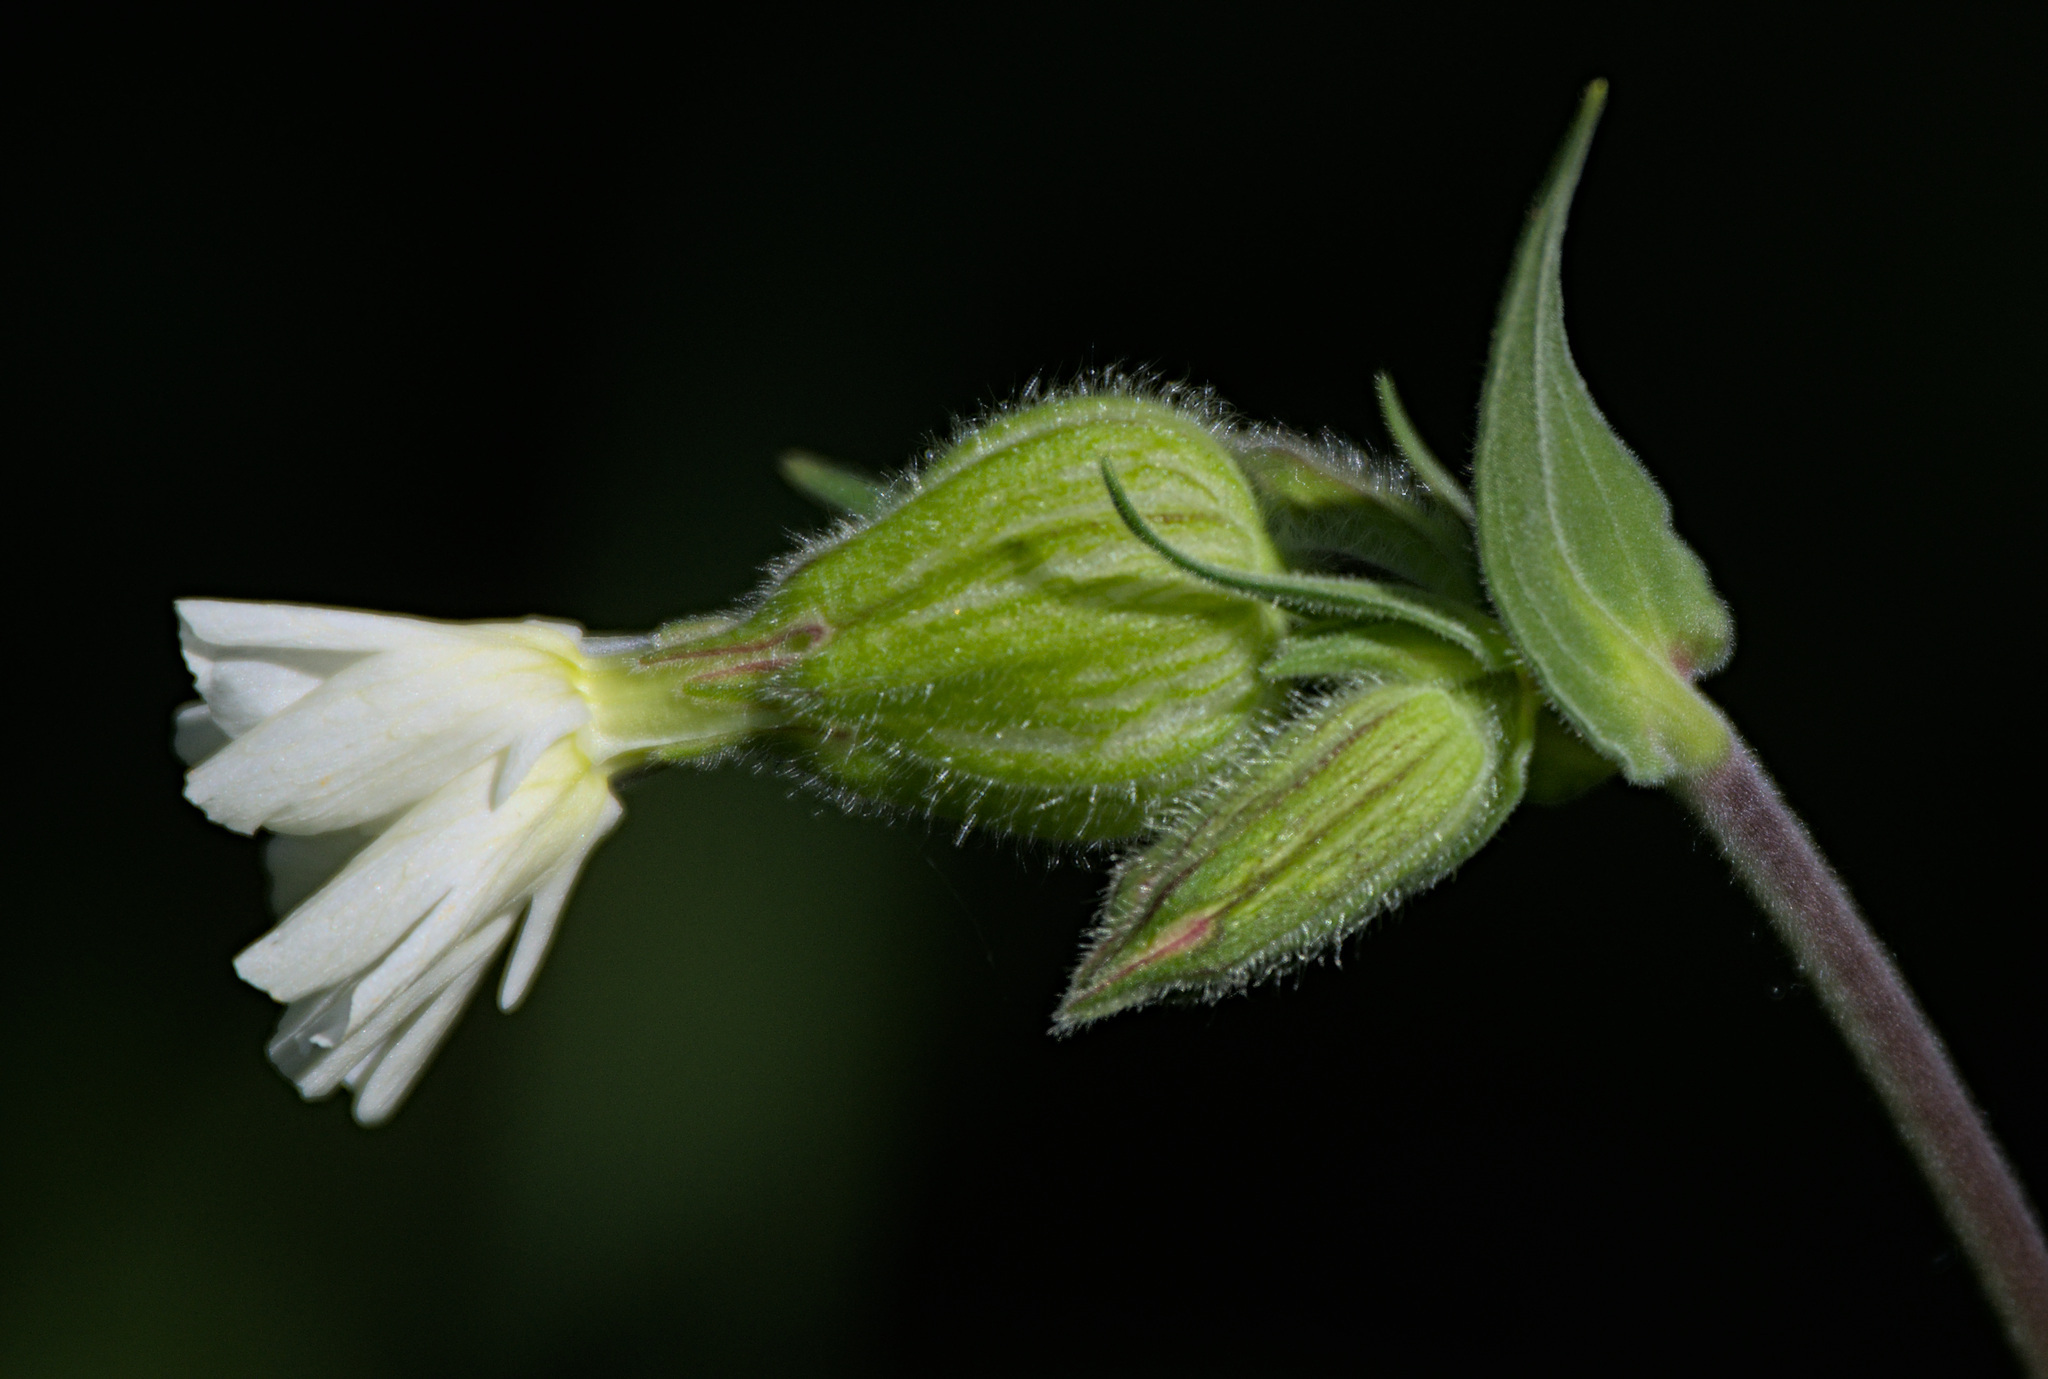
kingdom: Plantae
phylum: Tracheophyta
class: Magnoliopsida
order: Caryophyllales
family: Caryophyllaceae
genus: Silene
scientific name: Silene latifolia
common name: White campion
